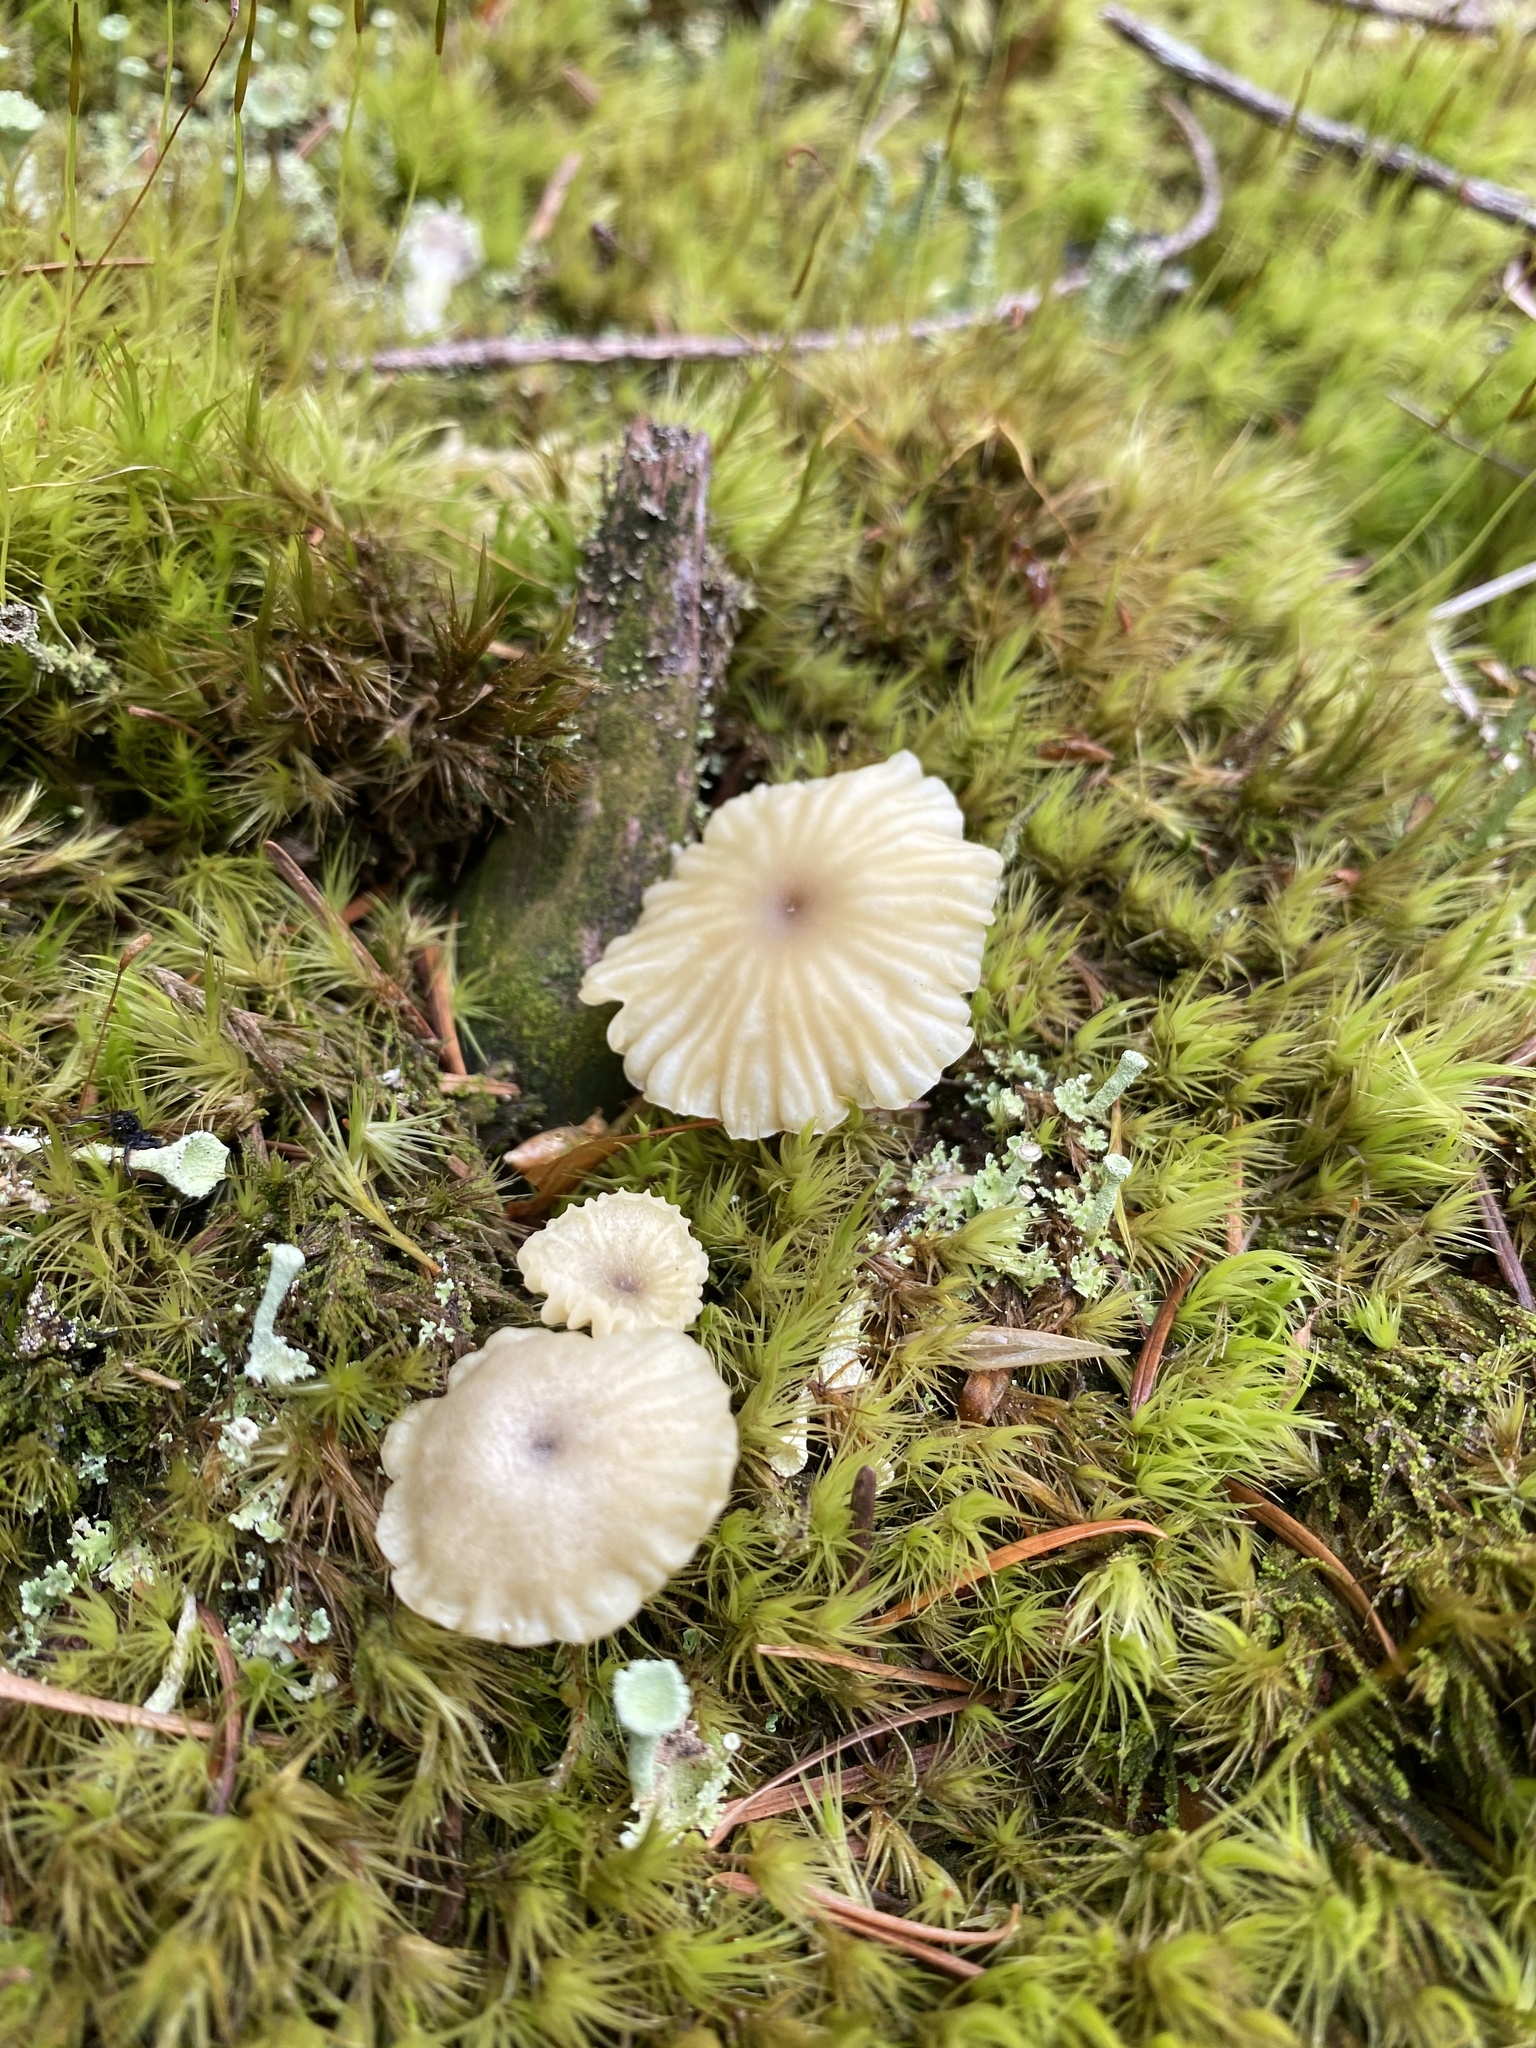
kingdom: Fungi
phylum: Basidiomycota
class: Agaricomycetes
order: Agaricales
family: Hygrophoraceae
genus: Lichenomphalia
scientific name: Lichenomphalia
